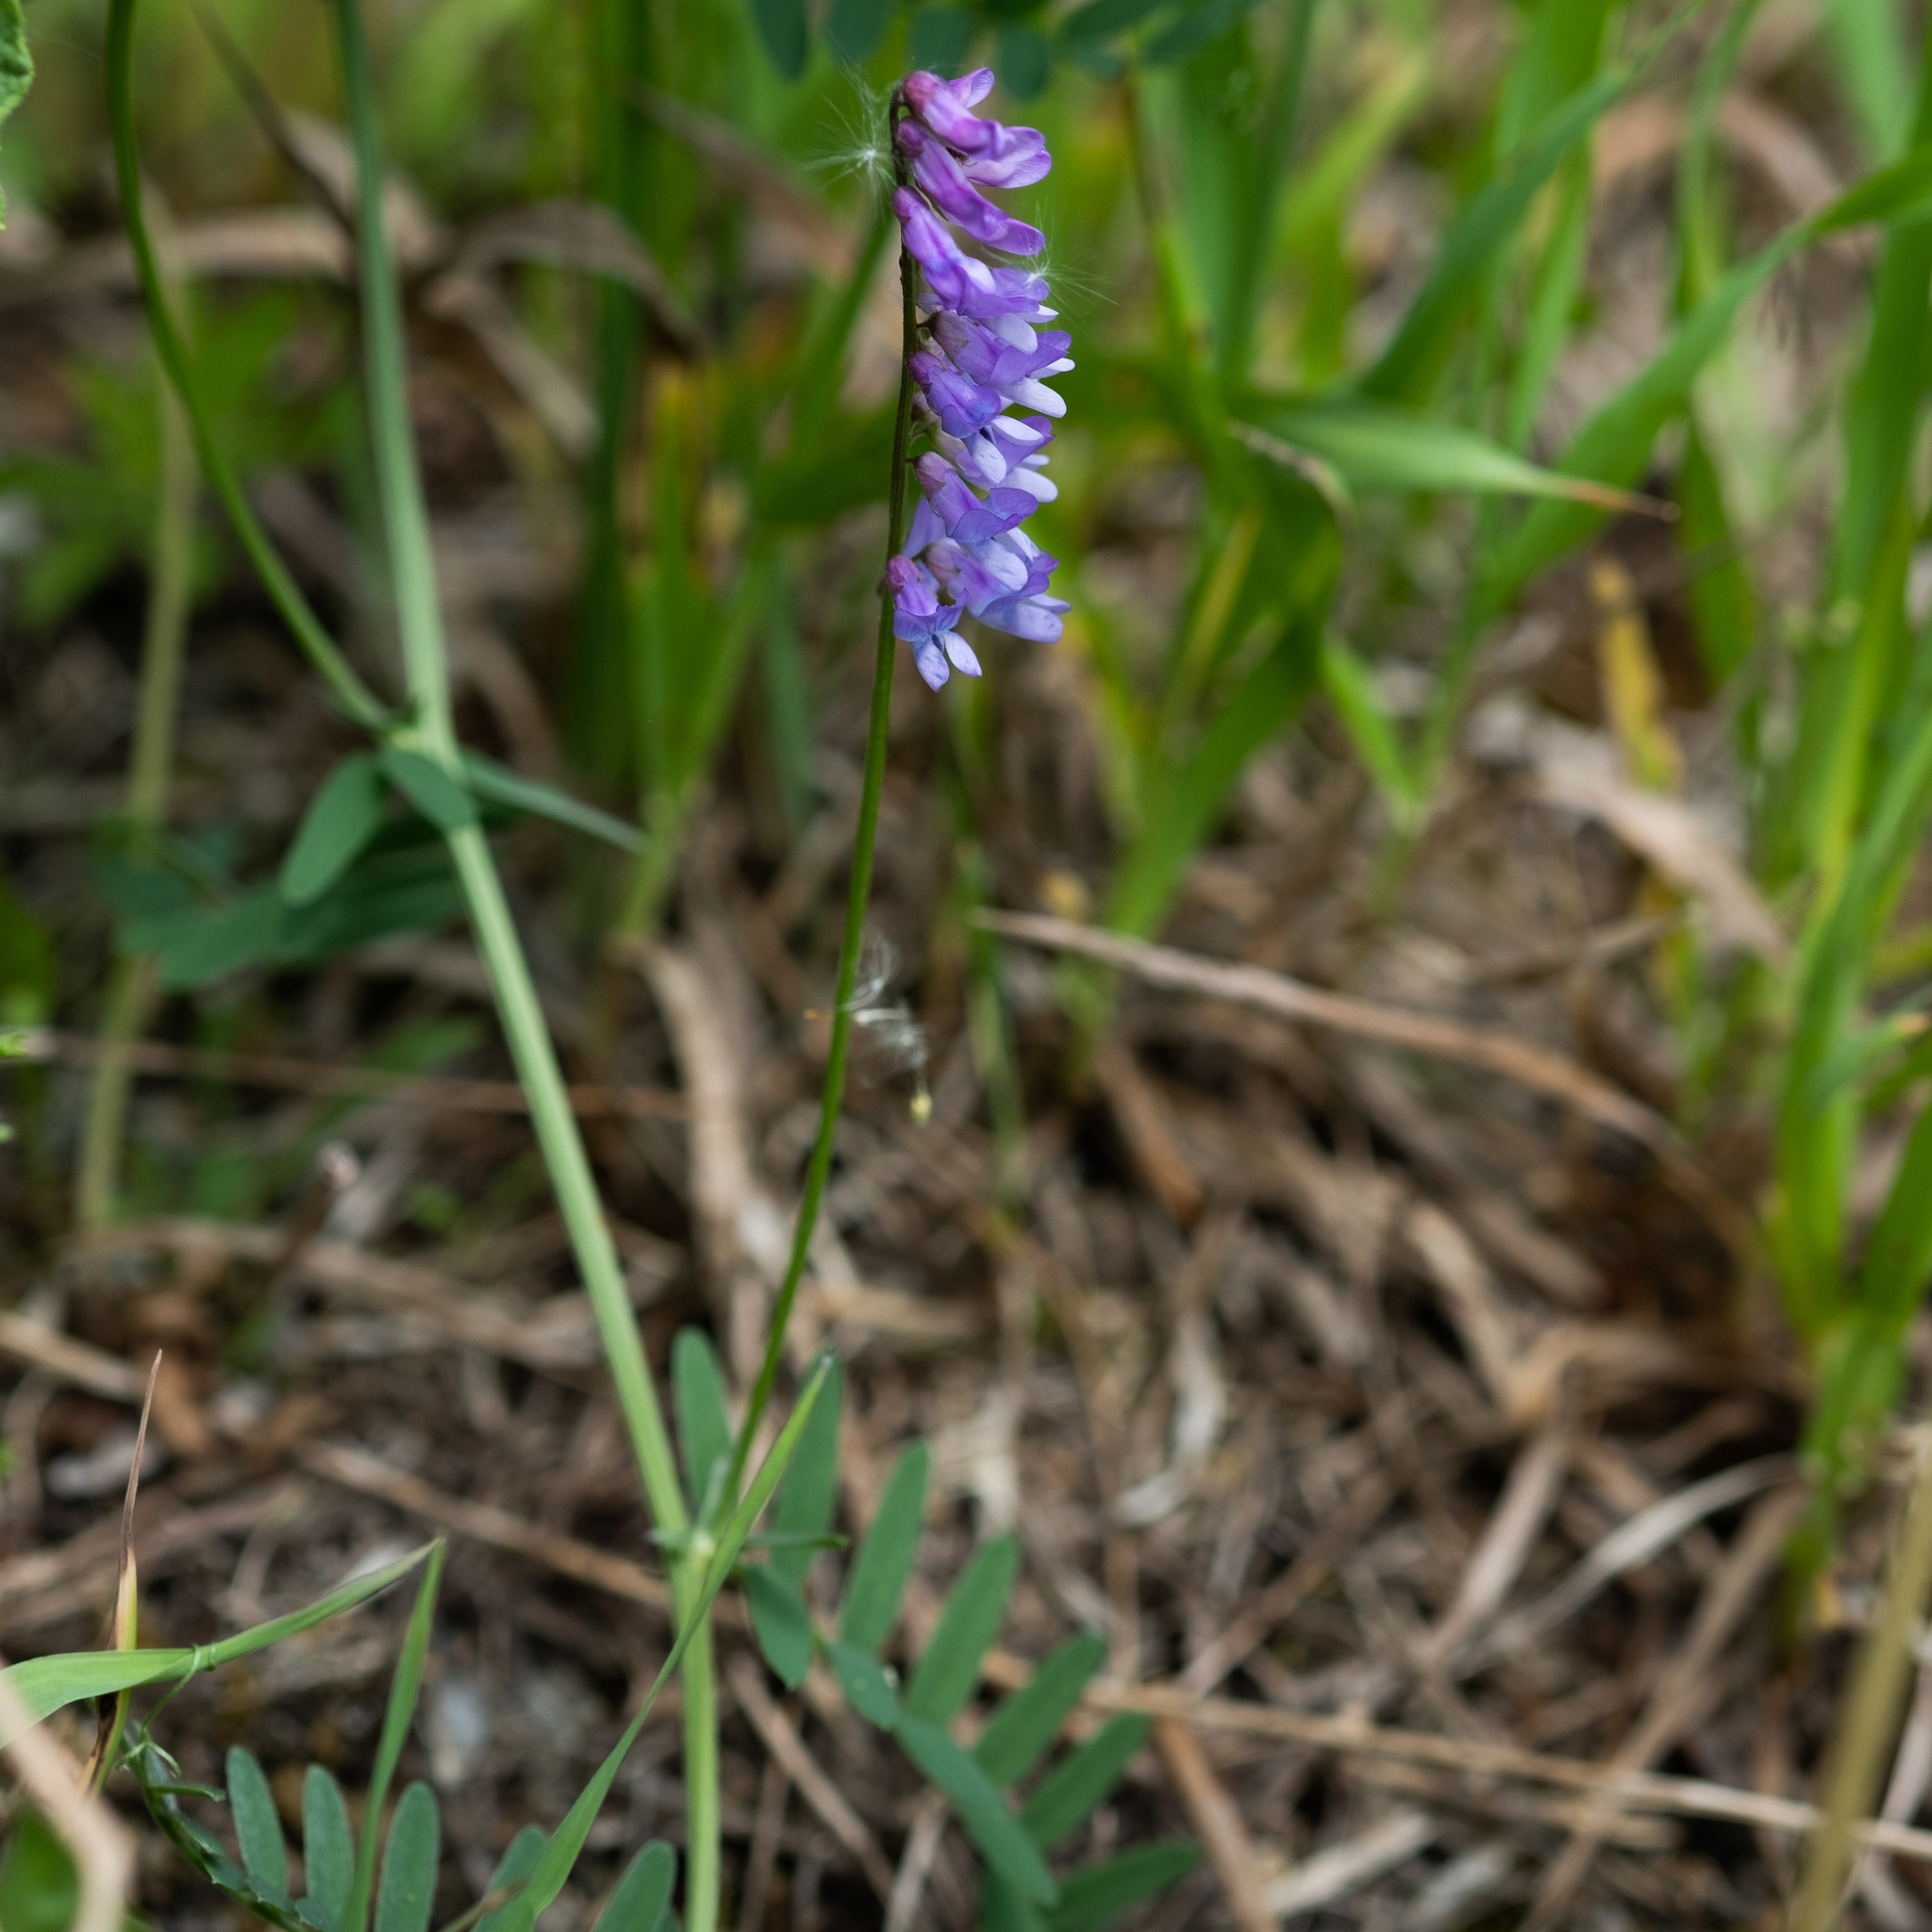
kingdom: Plantae
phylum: Tracheophyta
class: Magnoliopsida
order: Fabales
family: Fabaceae
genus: Vicia
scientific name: Vicia cracca
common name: Bird vetch
